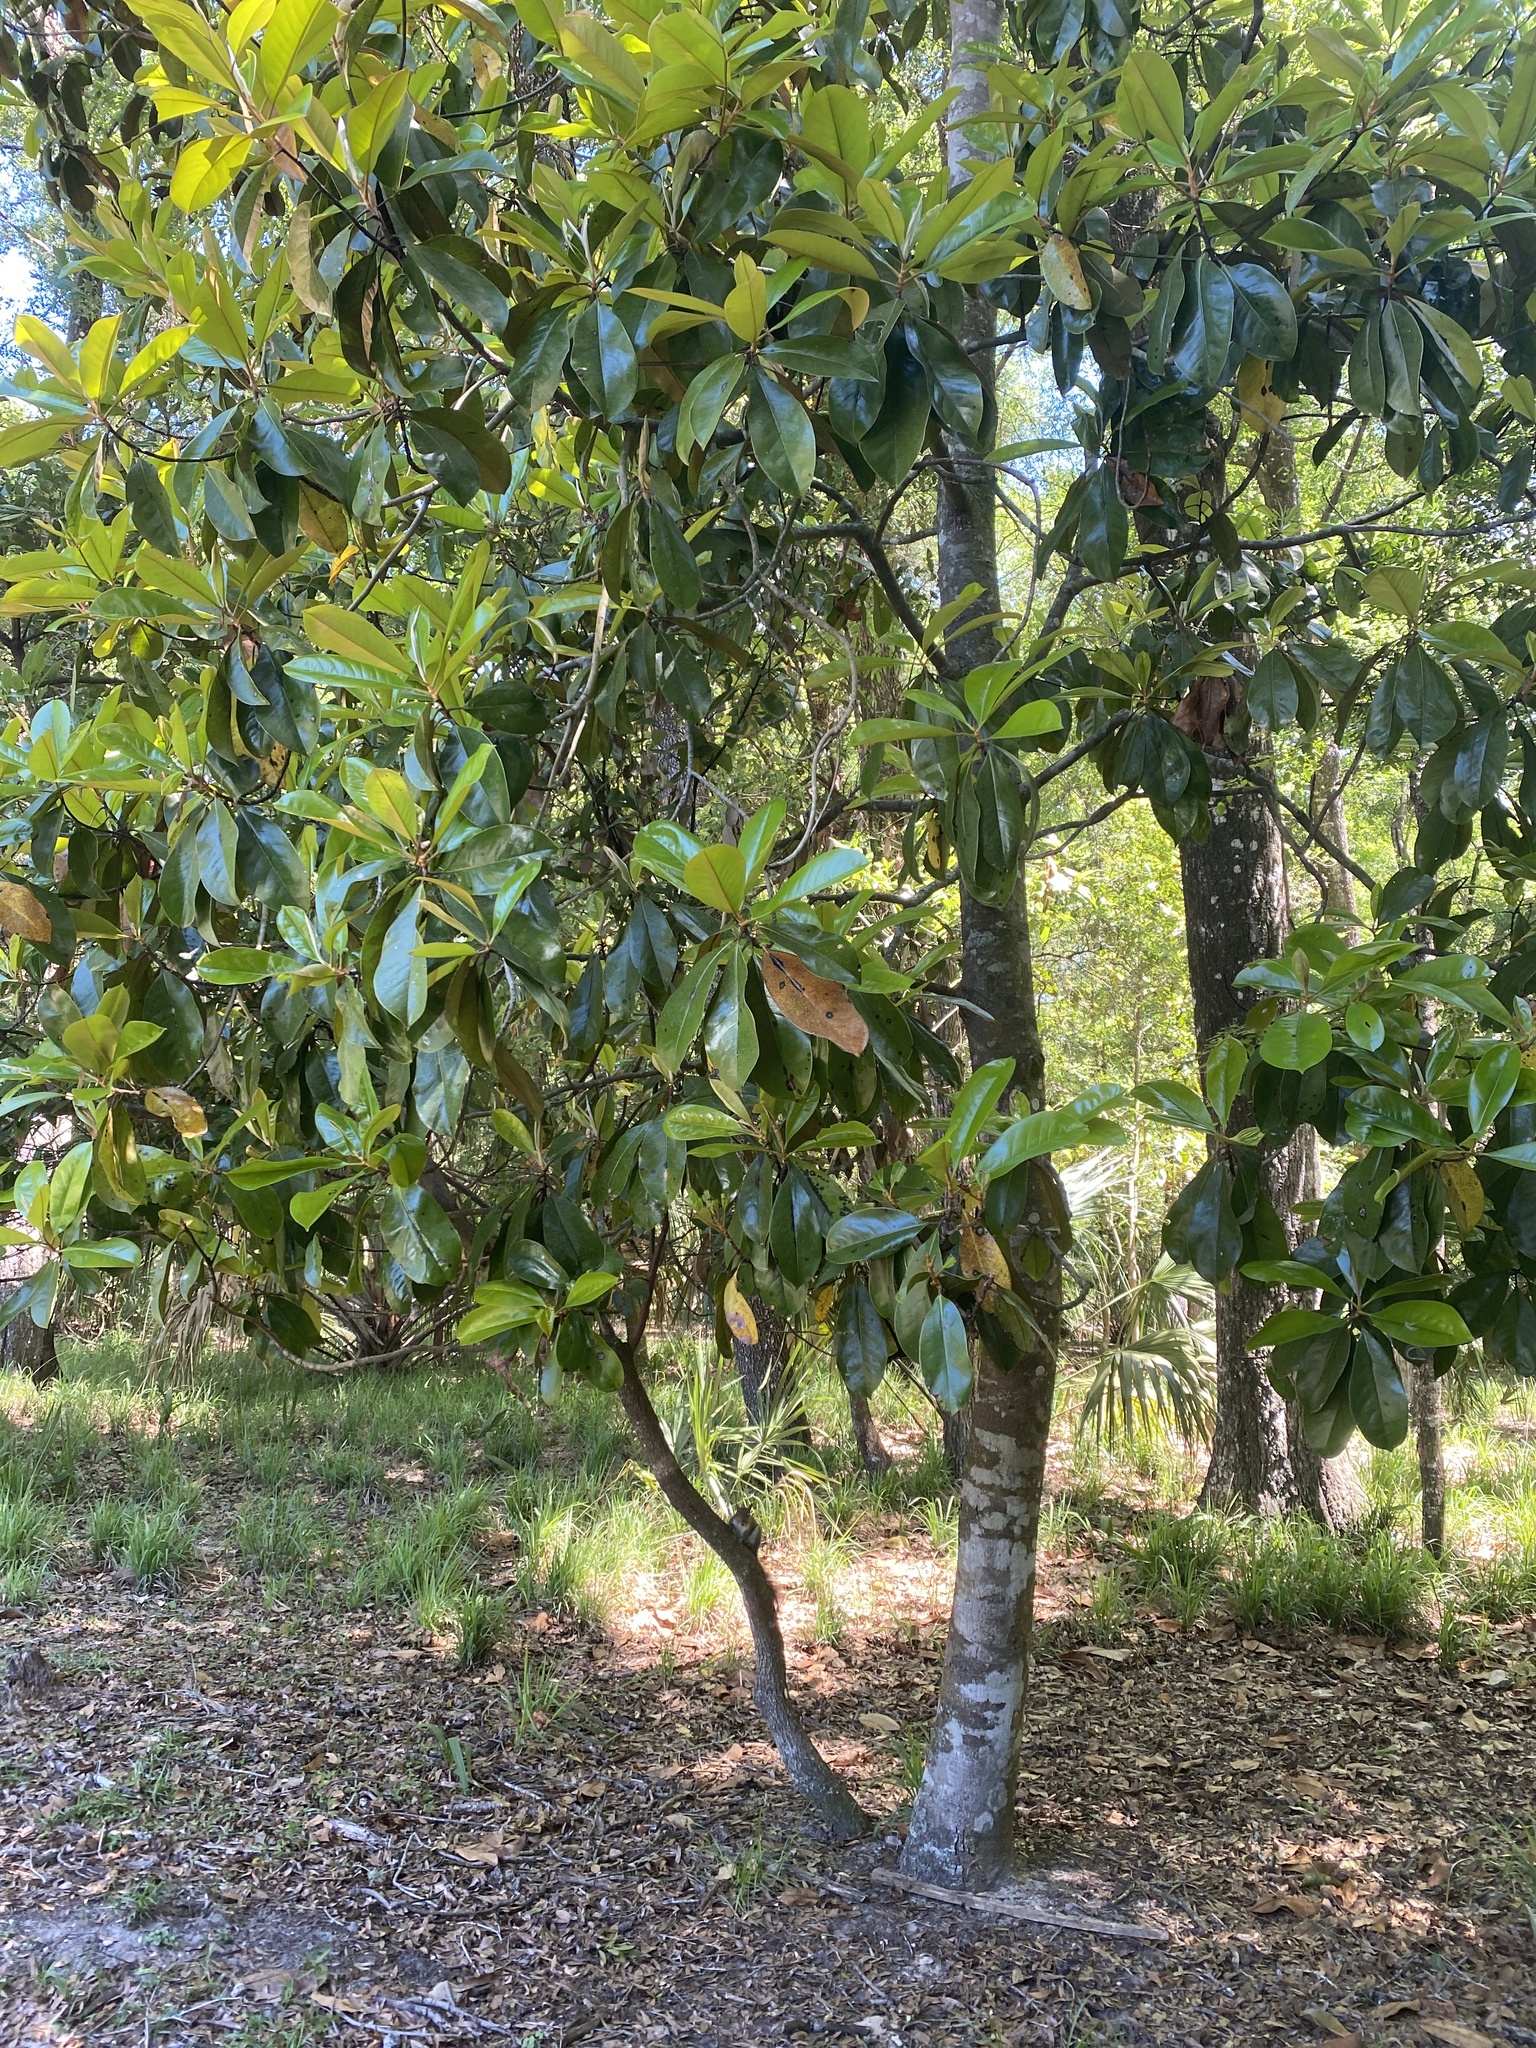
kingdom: Plantae
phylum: Tracheophyta
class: Magnoliopsida
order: Magnoliales
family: Magnoliaceae
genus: Magnolia
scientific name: Magnolia grandiflora
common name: Southern magnolia
